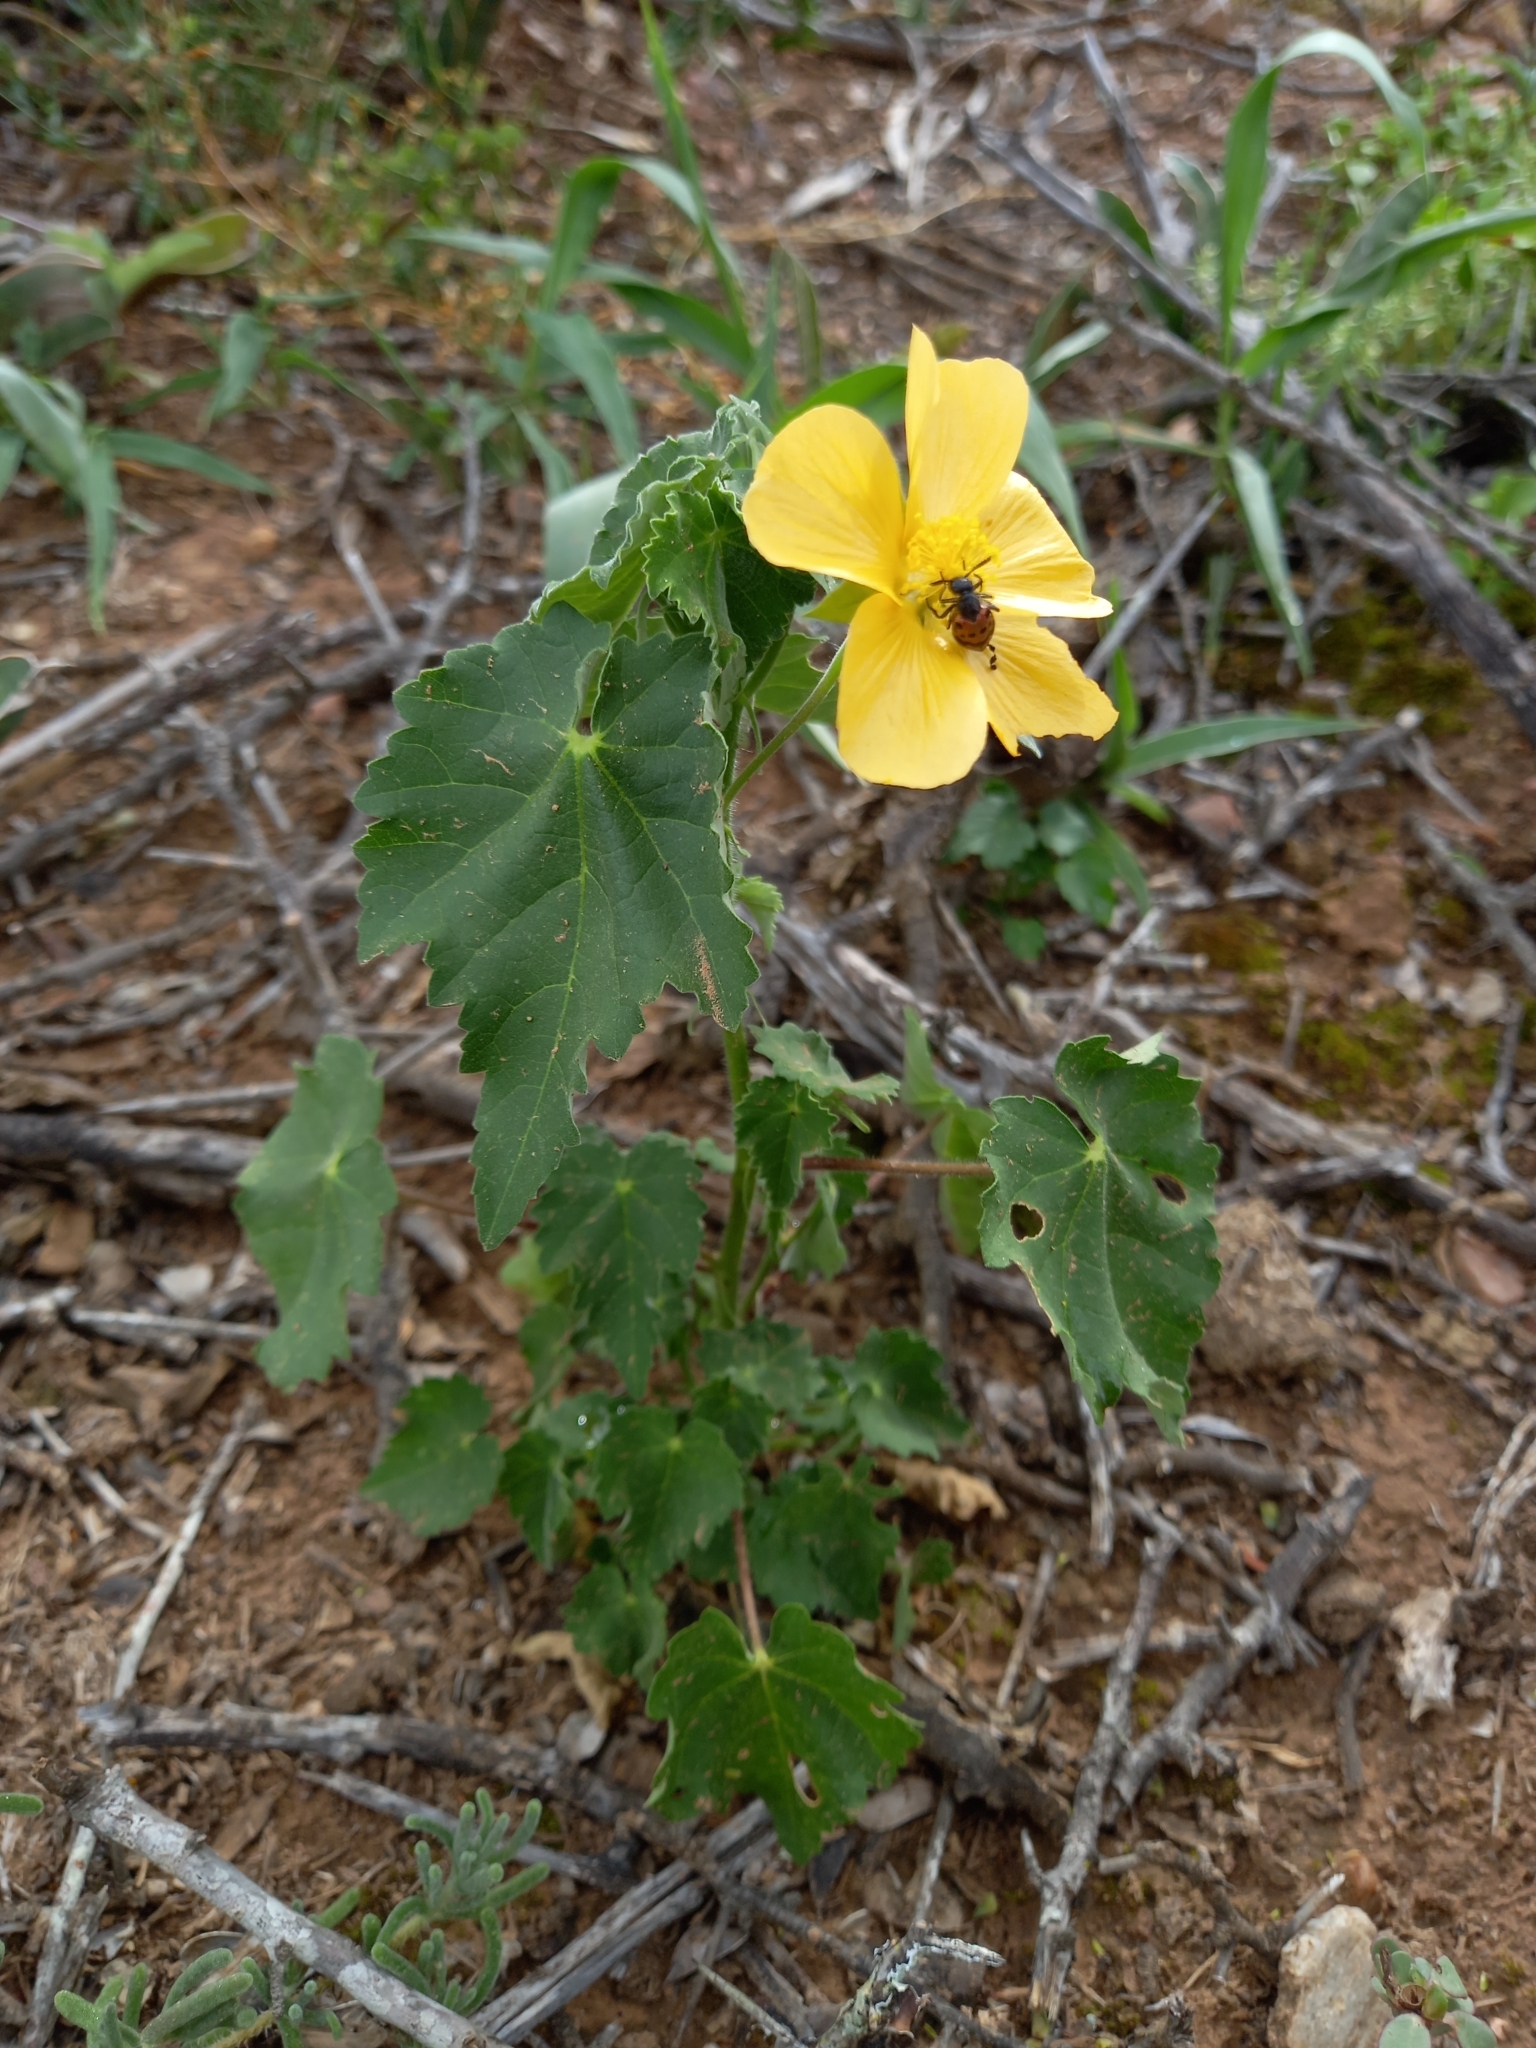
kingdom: Plantae
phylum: Tracheophyta
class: Magnoliopsida
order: Malvales
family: Malvaceae
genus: Abutilon
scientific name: Abutilon sonneratianum
